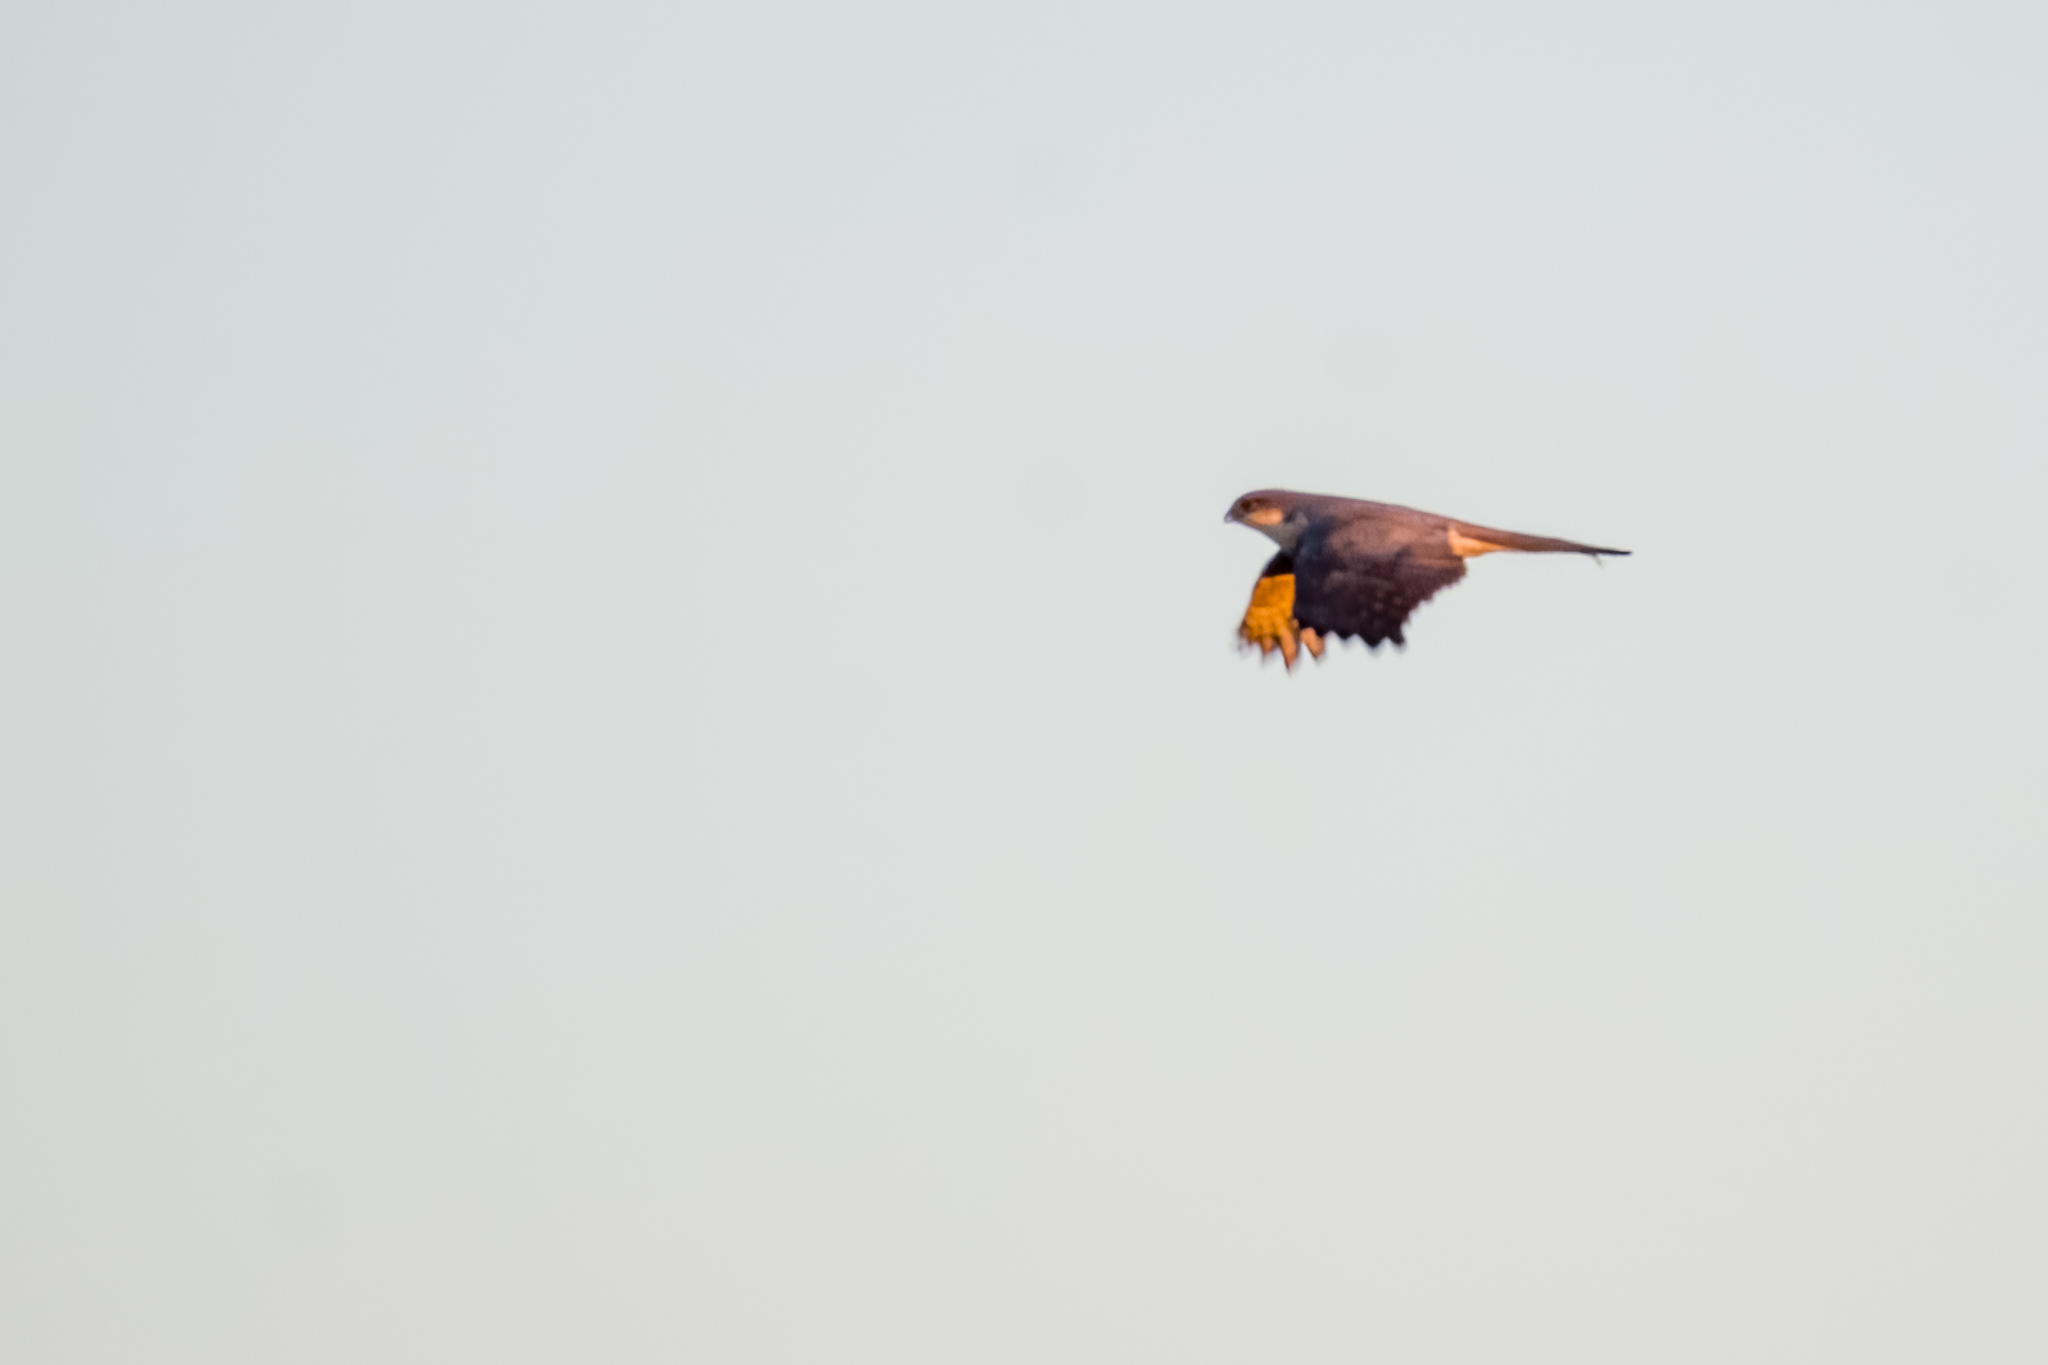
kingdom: Animalia
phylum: Chordata
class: Aves
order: Accipitriformes
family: Accipitridae
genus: Accipiter
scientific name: Accipiter nisus
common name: Eurasian sparrowhawk
